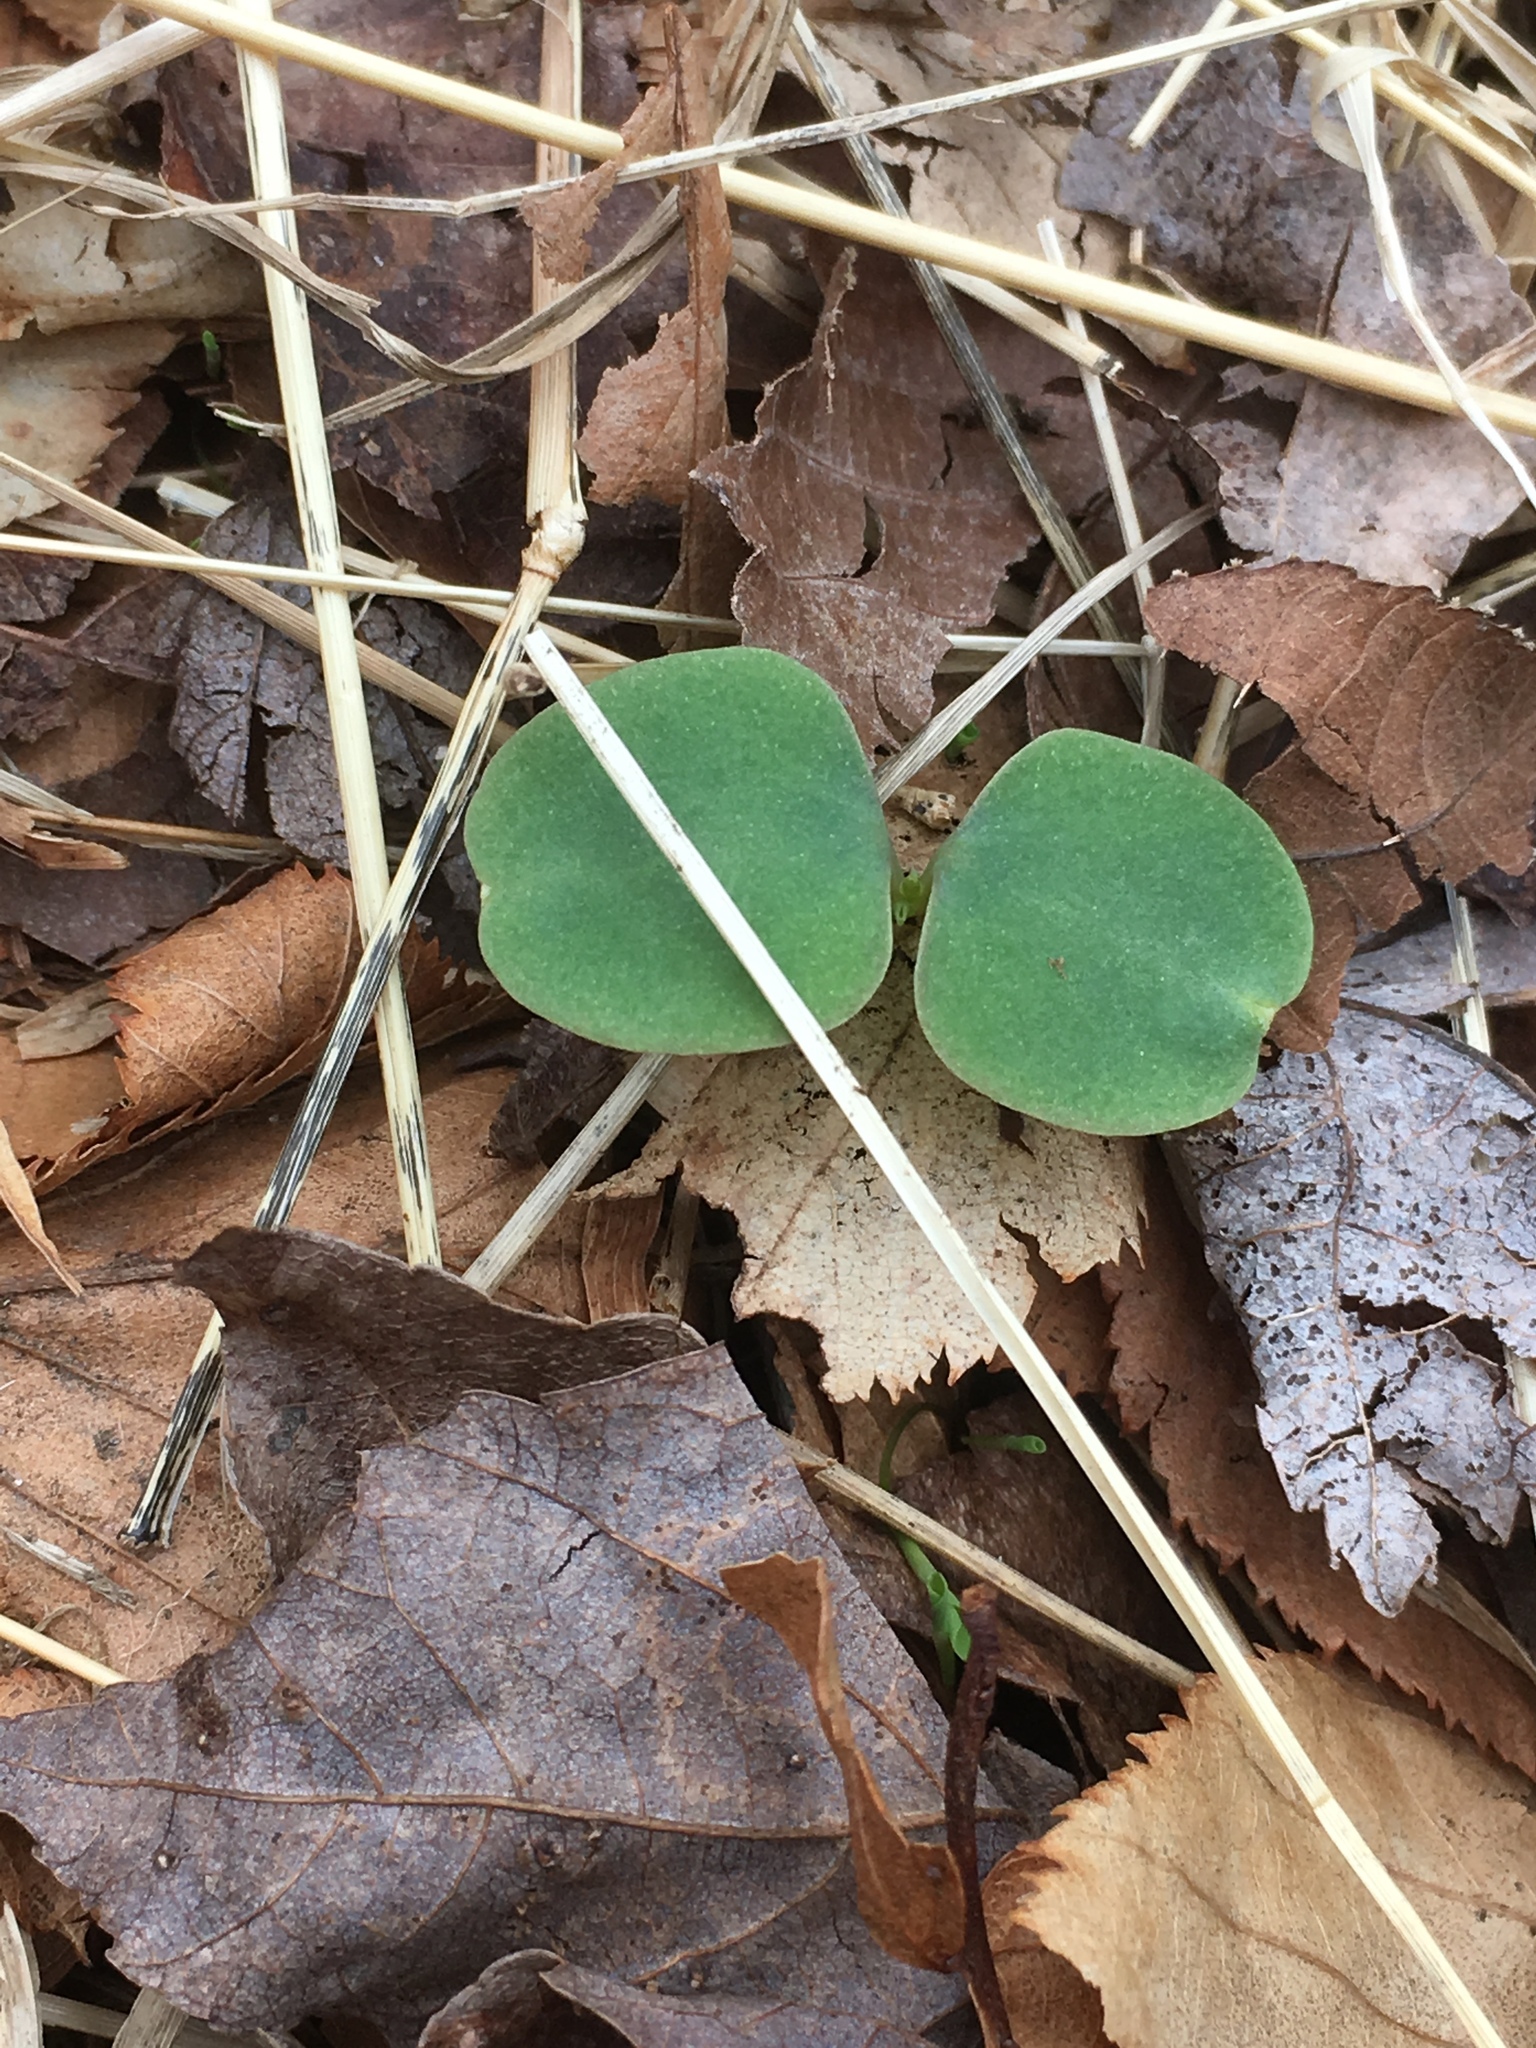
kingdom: Plantae
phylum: Tracheophyta
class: Magnoliopsida
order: Ericales
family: Balsaminaceae
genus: Impatiens
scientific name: Impatiens
